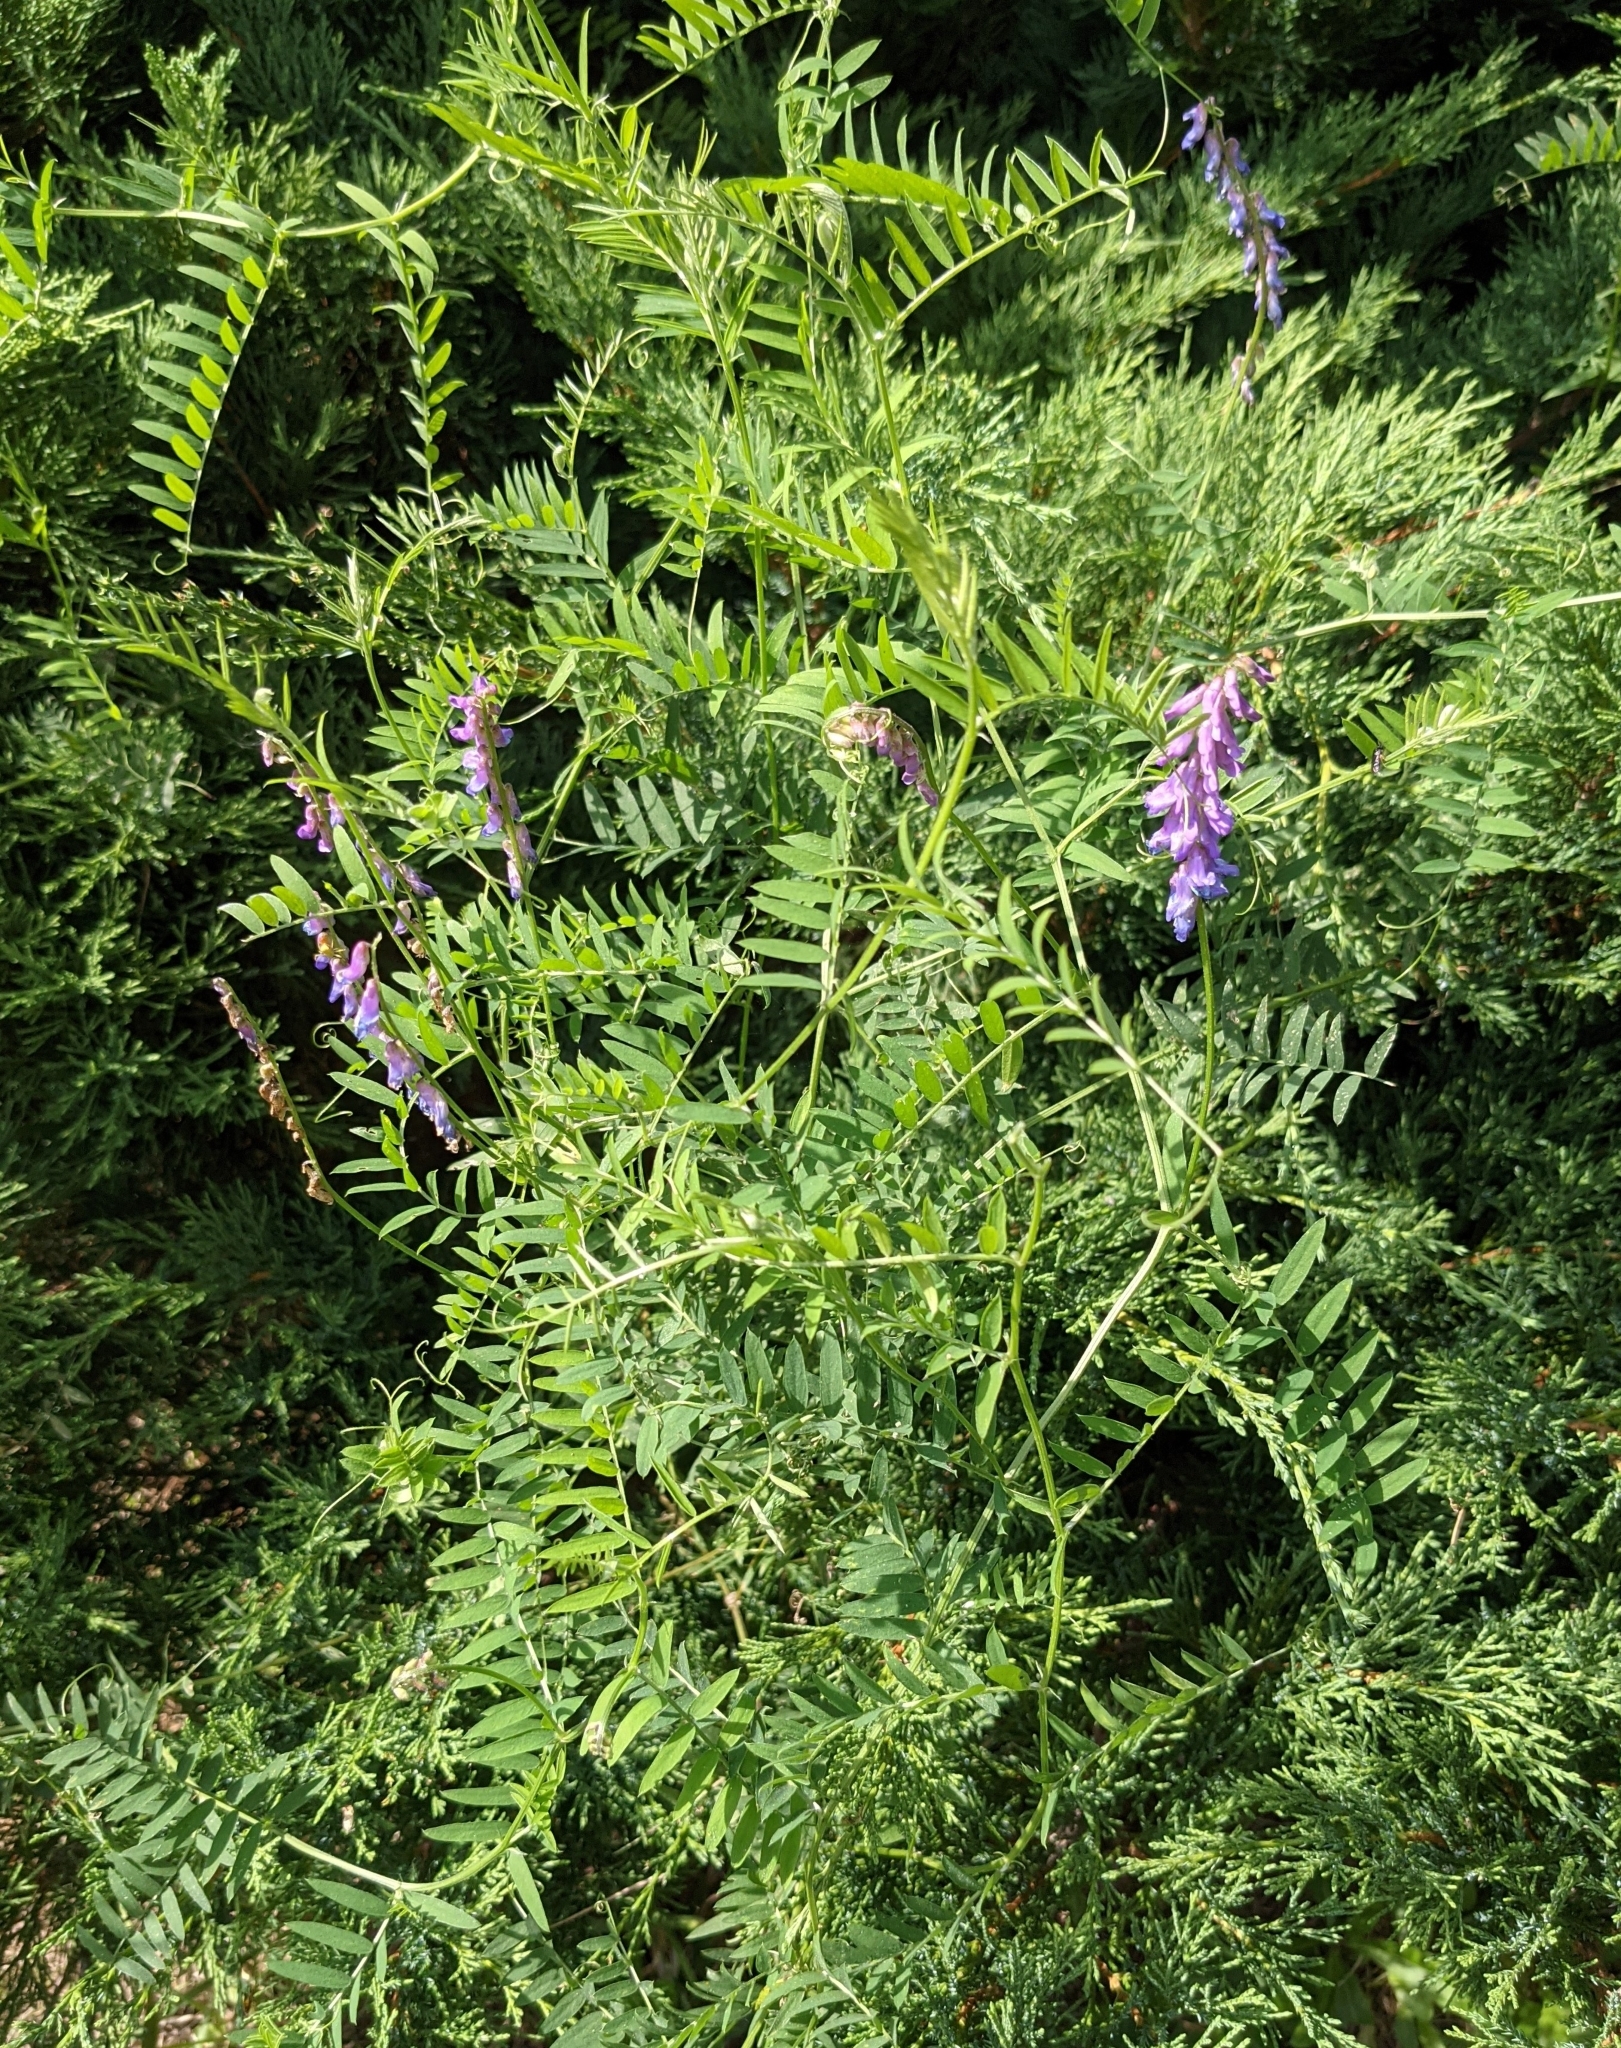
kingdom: Plantae
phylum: Tracheophyta
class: Magnoliopsida
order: Fabales
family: Fabaceae
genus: Vicia
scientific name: Vicia cracca
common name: Bird vetch
